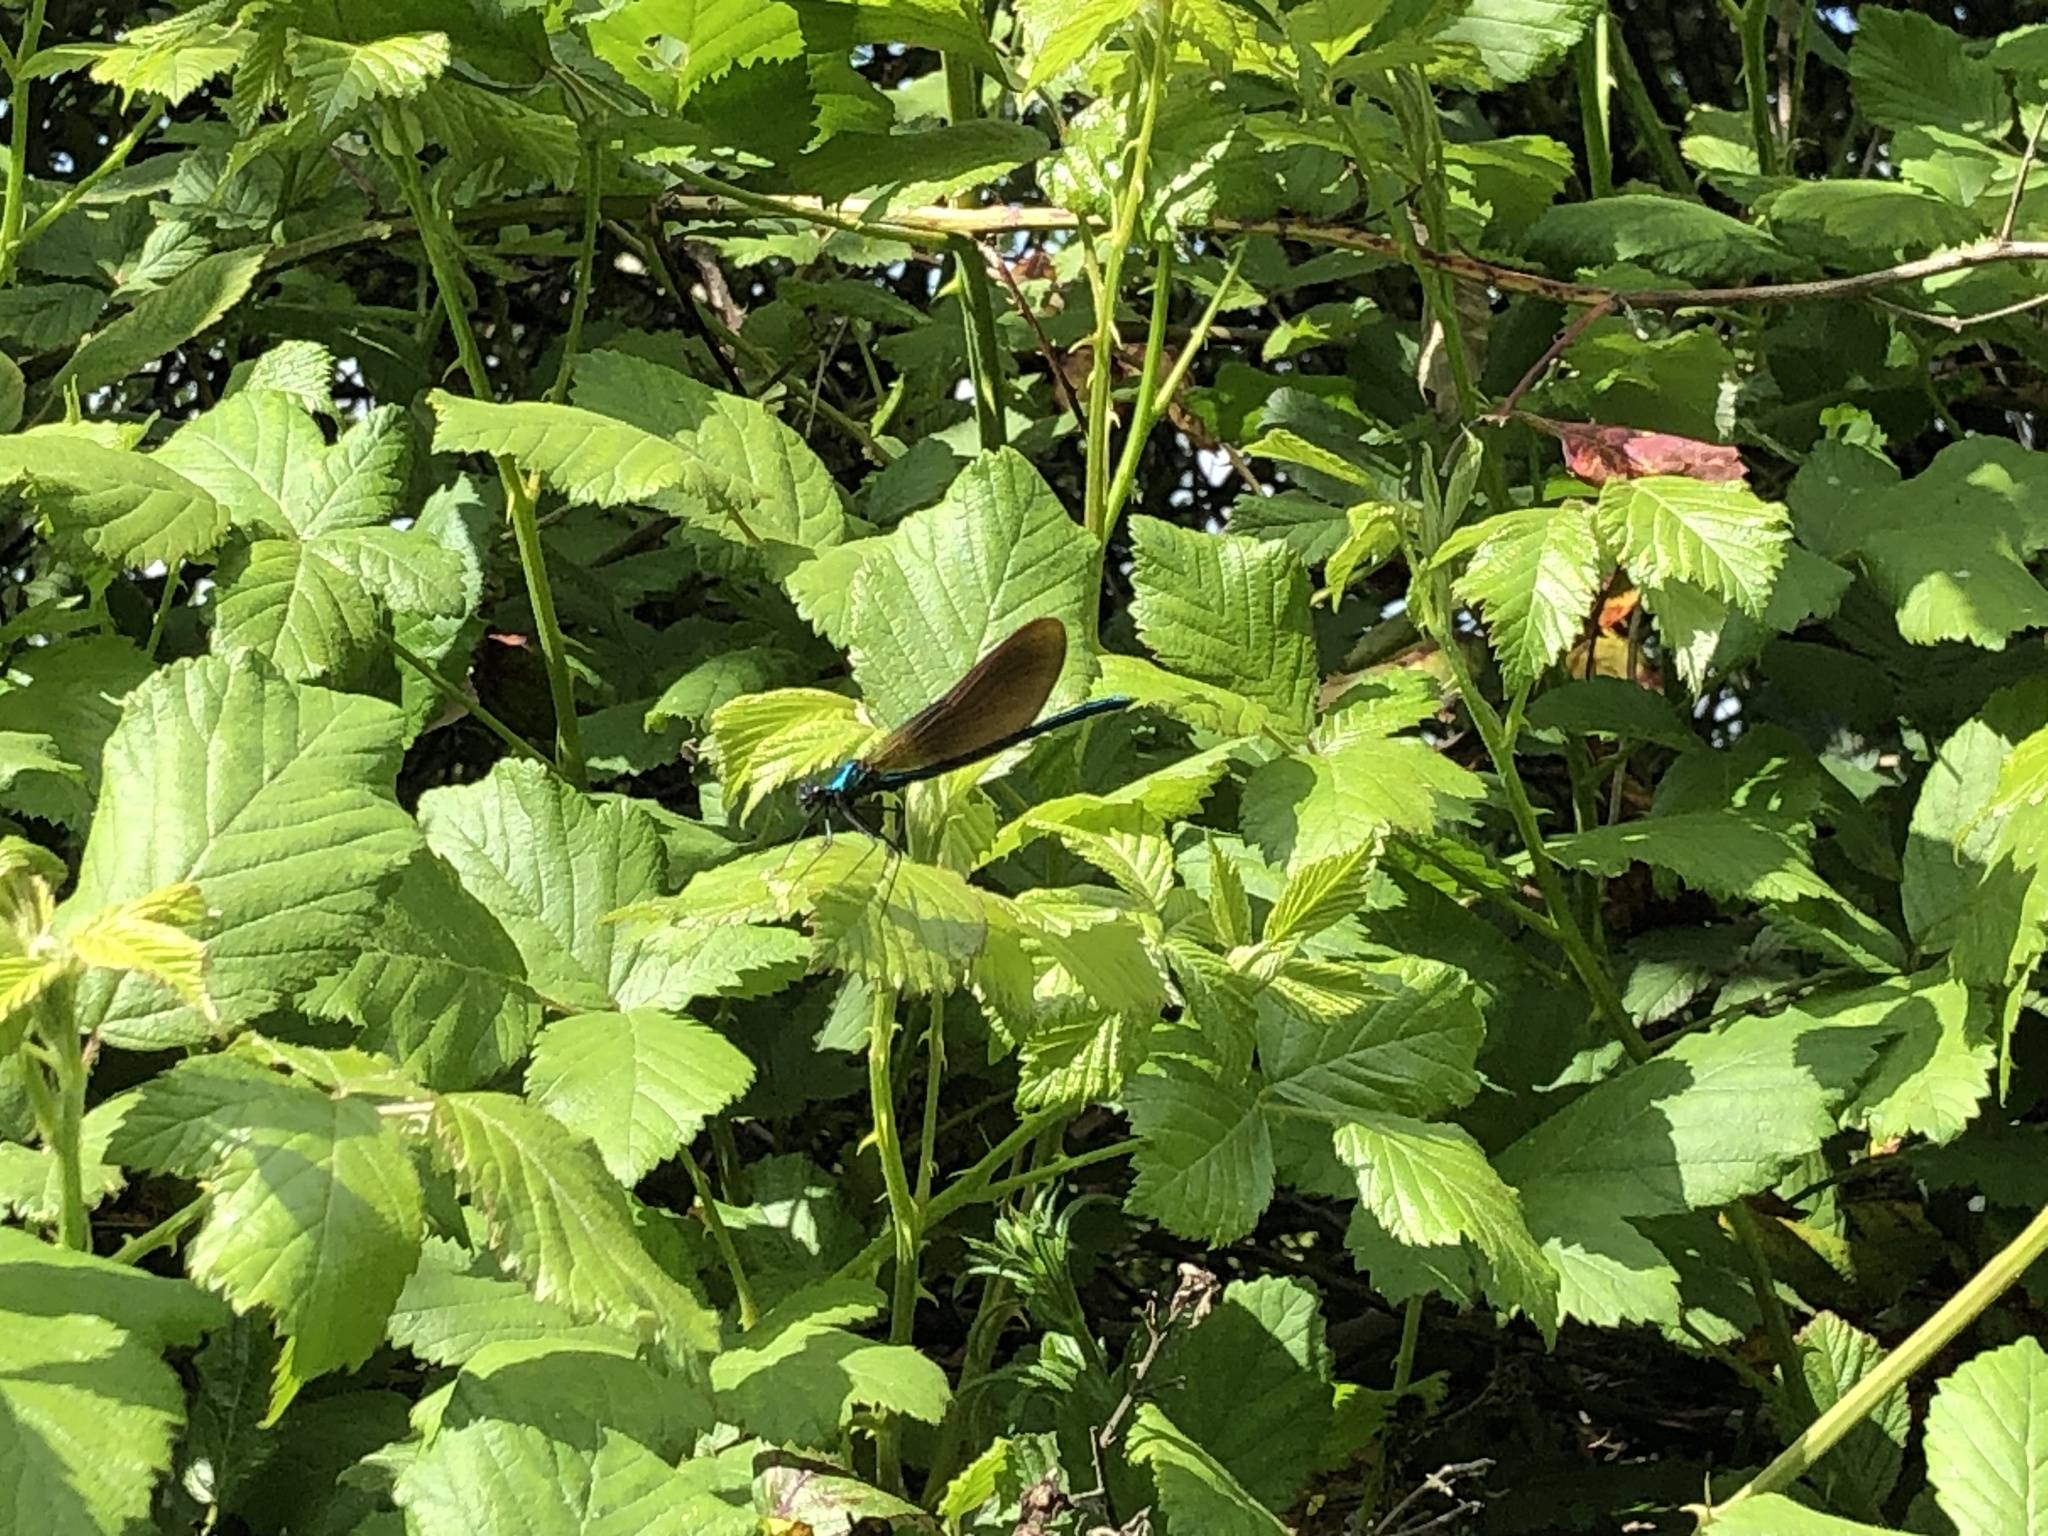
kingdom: Animalia
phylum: Arthropoda
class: Insecta
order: Odonata
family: Calopterygidae
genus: Calopteryx
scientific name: Calopteryx virgo
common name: Beautiful demoiselle
